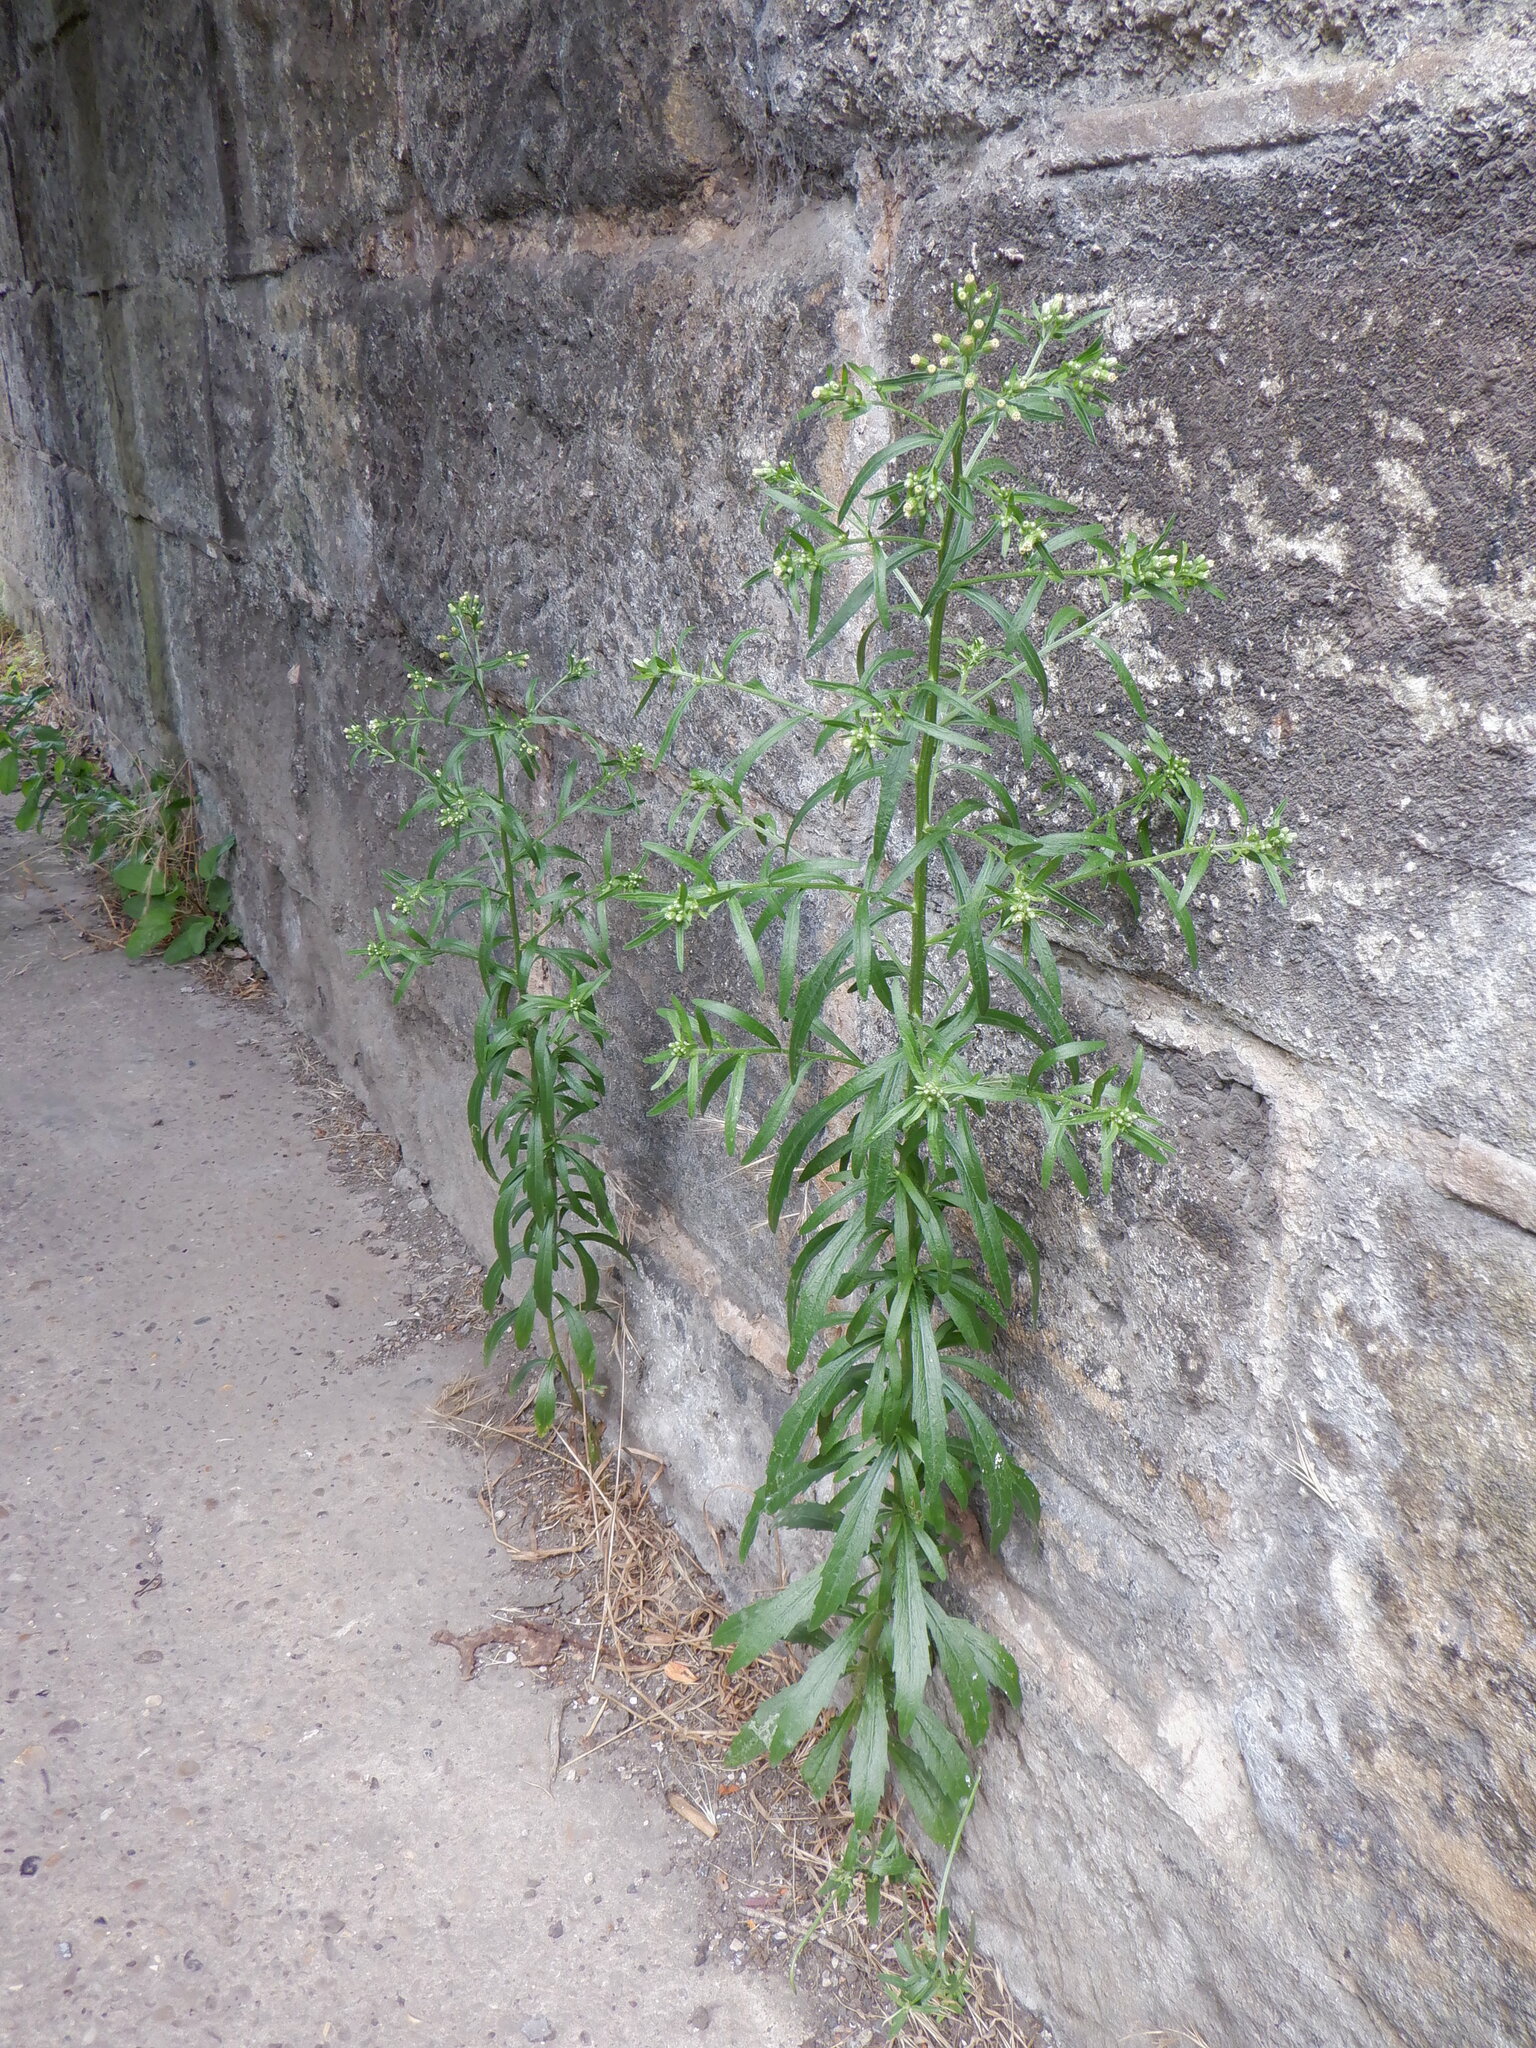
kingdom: Plantae
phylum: Tracheophyta
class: Magnoliopsida
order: Asterales
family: Asteraceae
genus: Erigeron
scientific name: Erigeron floribundus
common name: Bilbao fleabane
